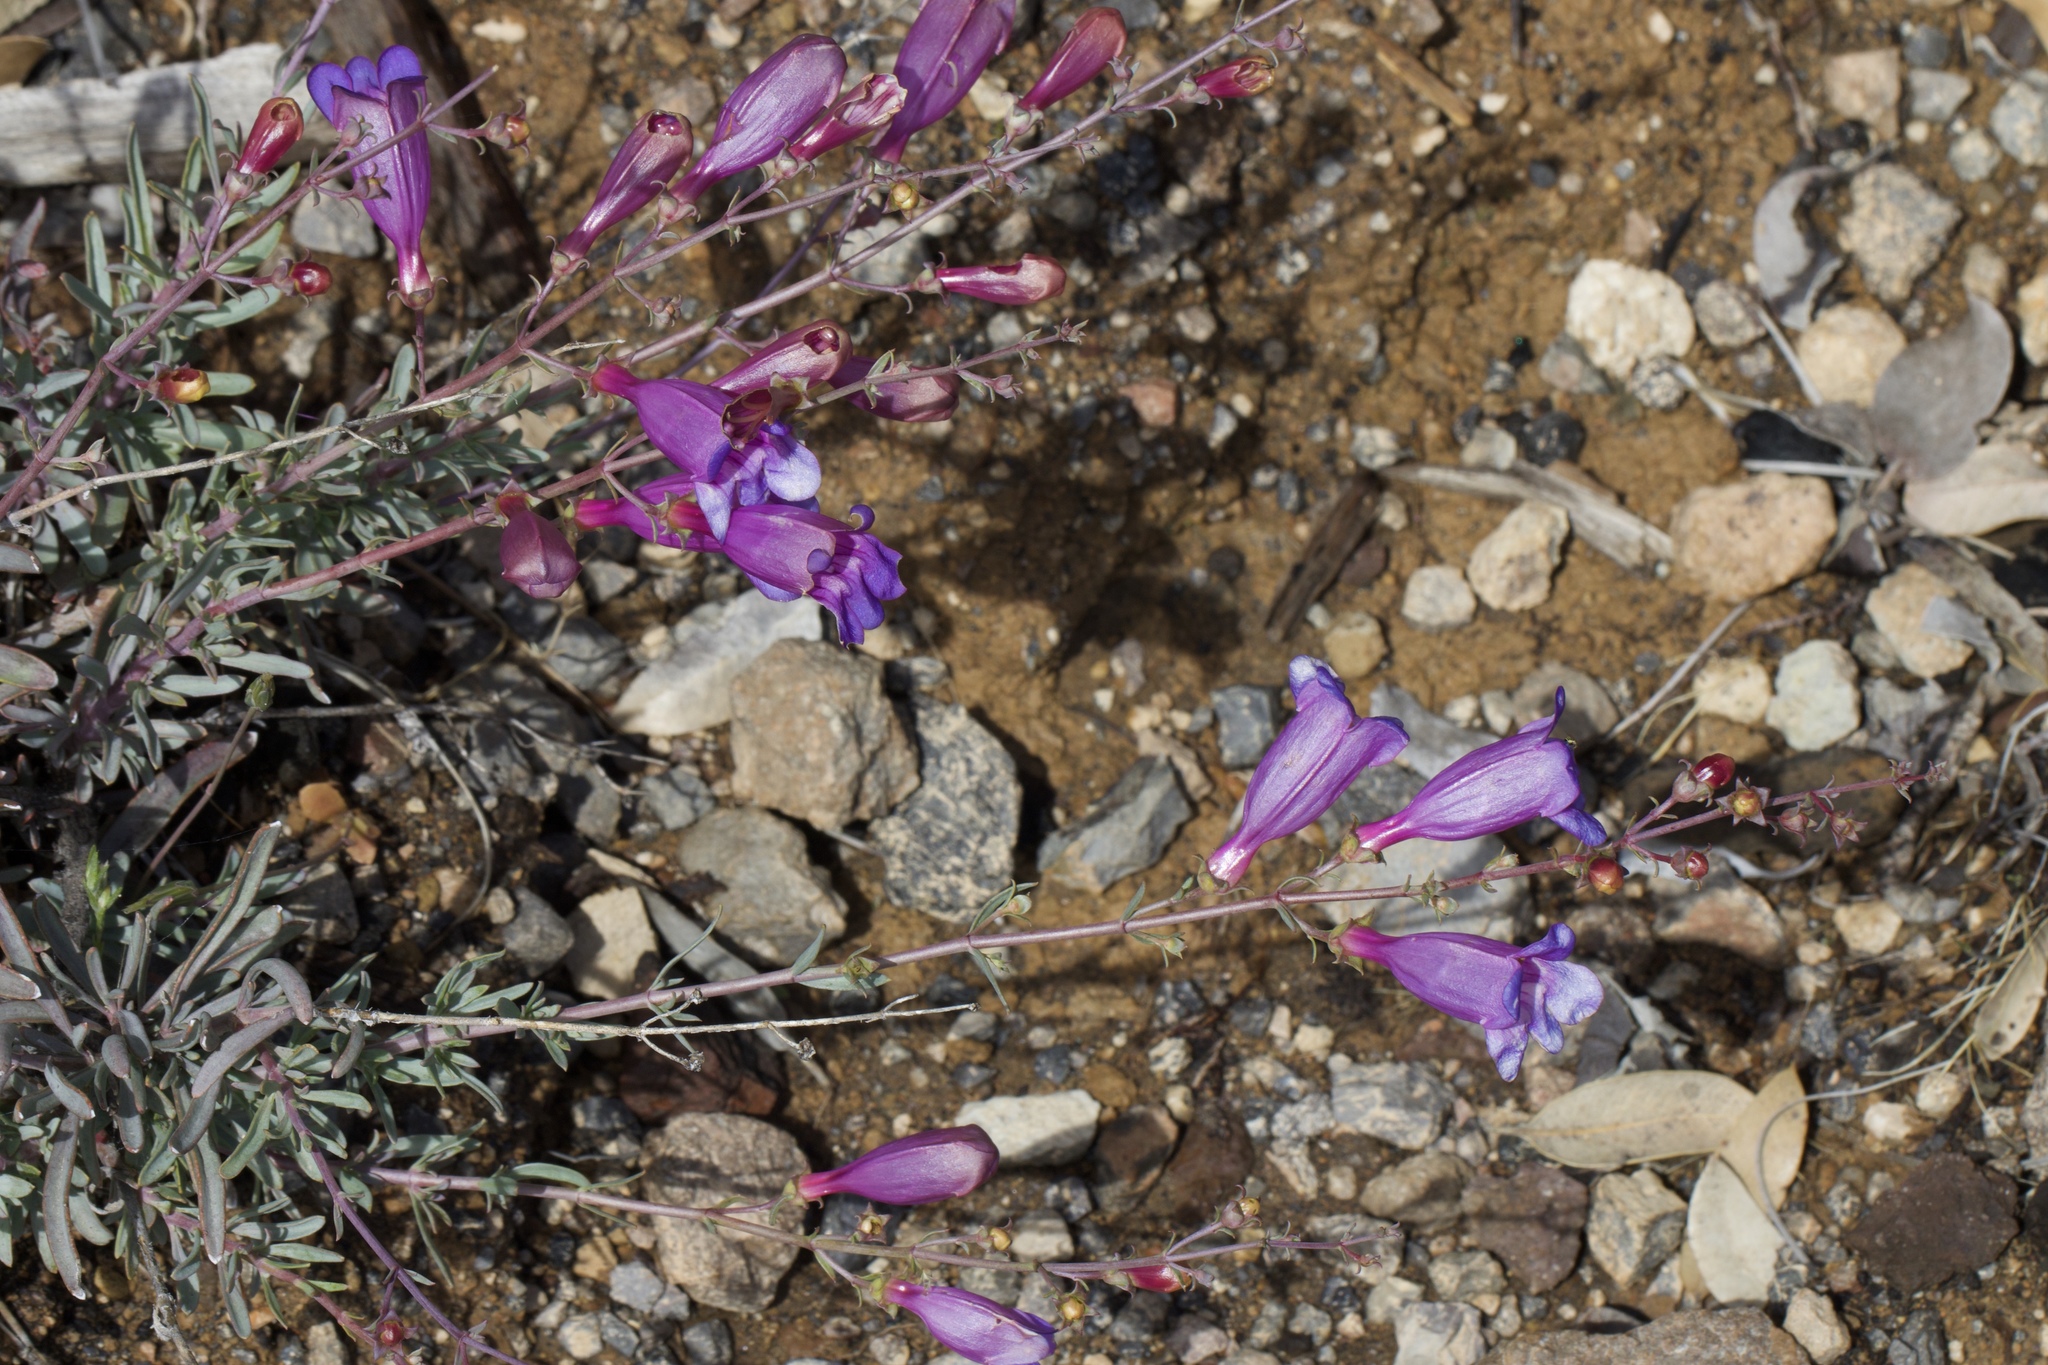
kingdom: Plantae
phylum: Tracheophyta
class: Magnoliopsida
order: Lamiales
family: Plantaginaceae
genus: Penstemon
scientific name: Penstemon heterophyllus
